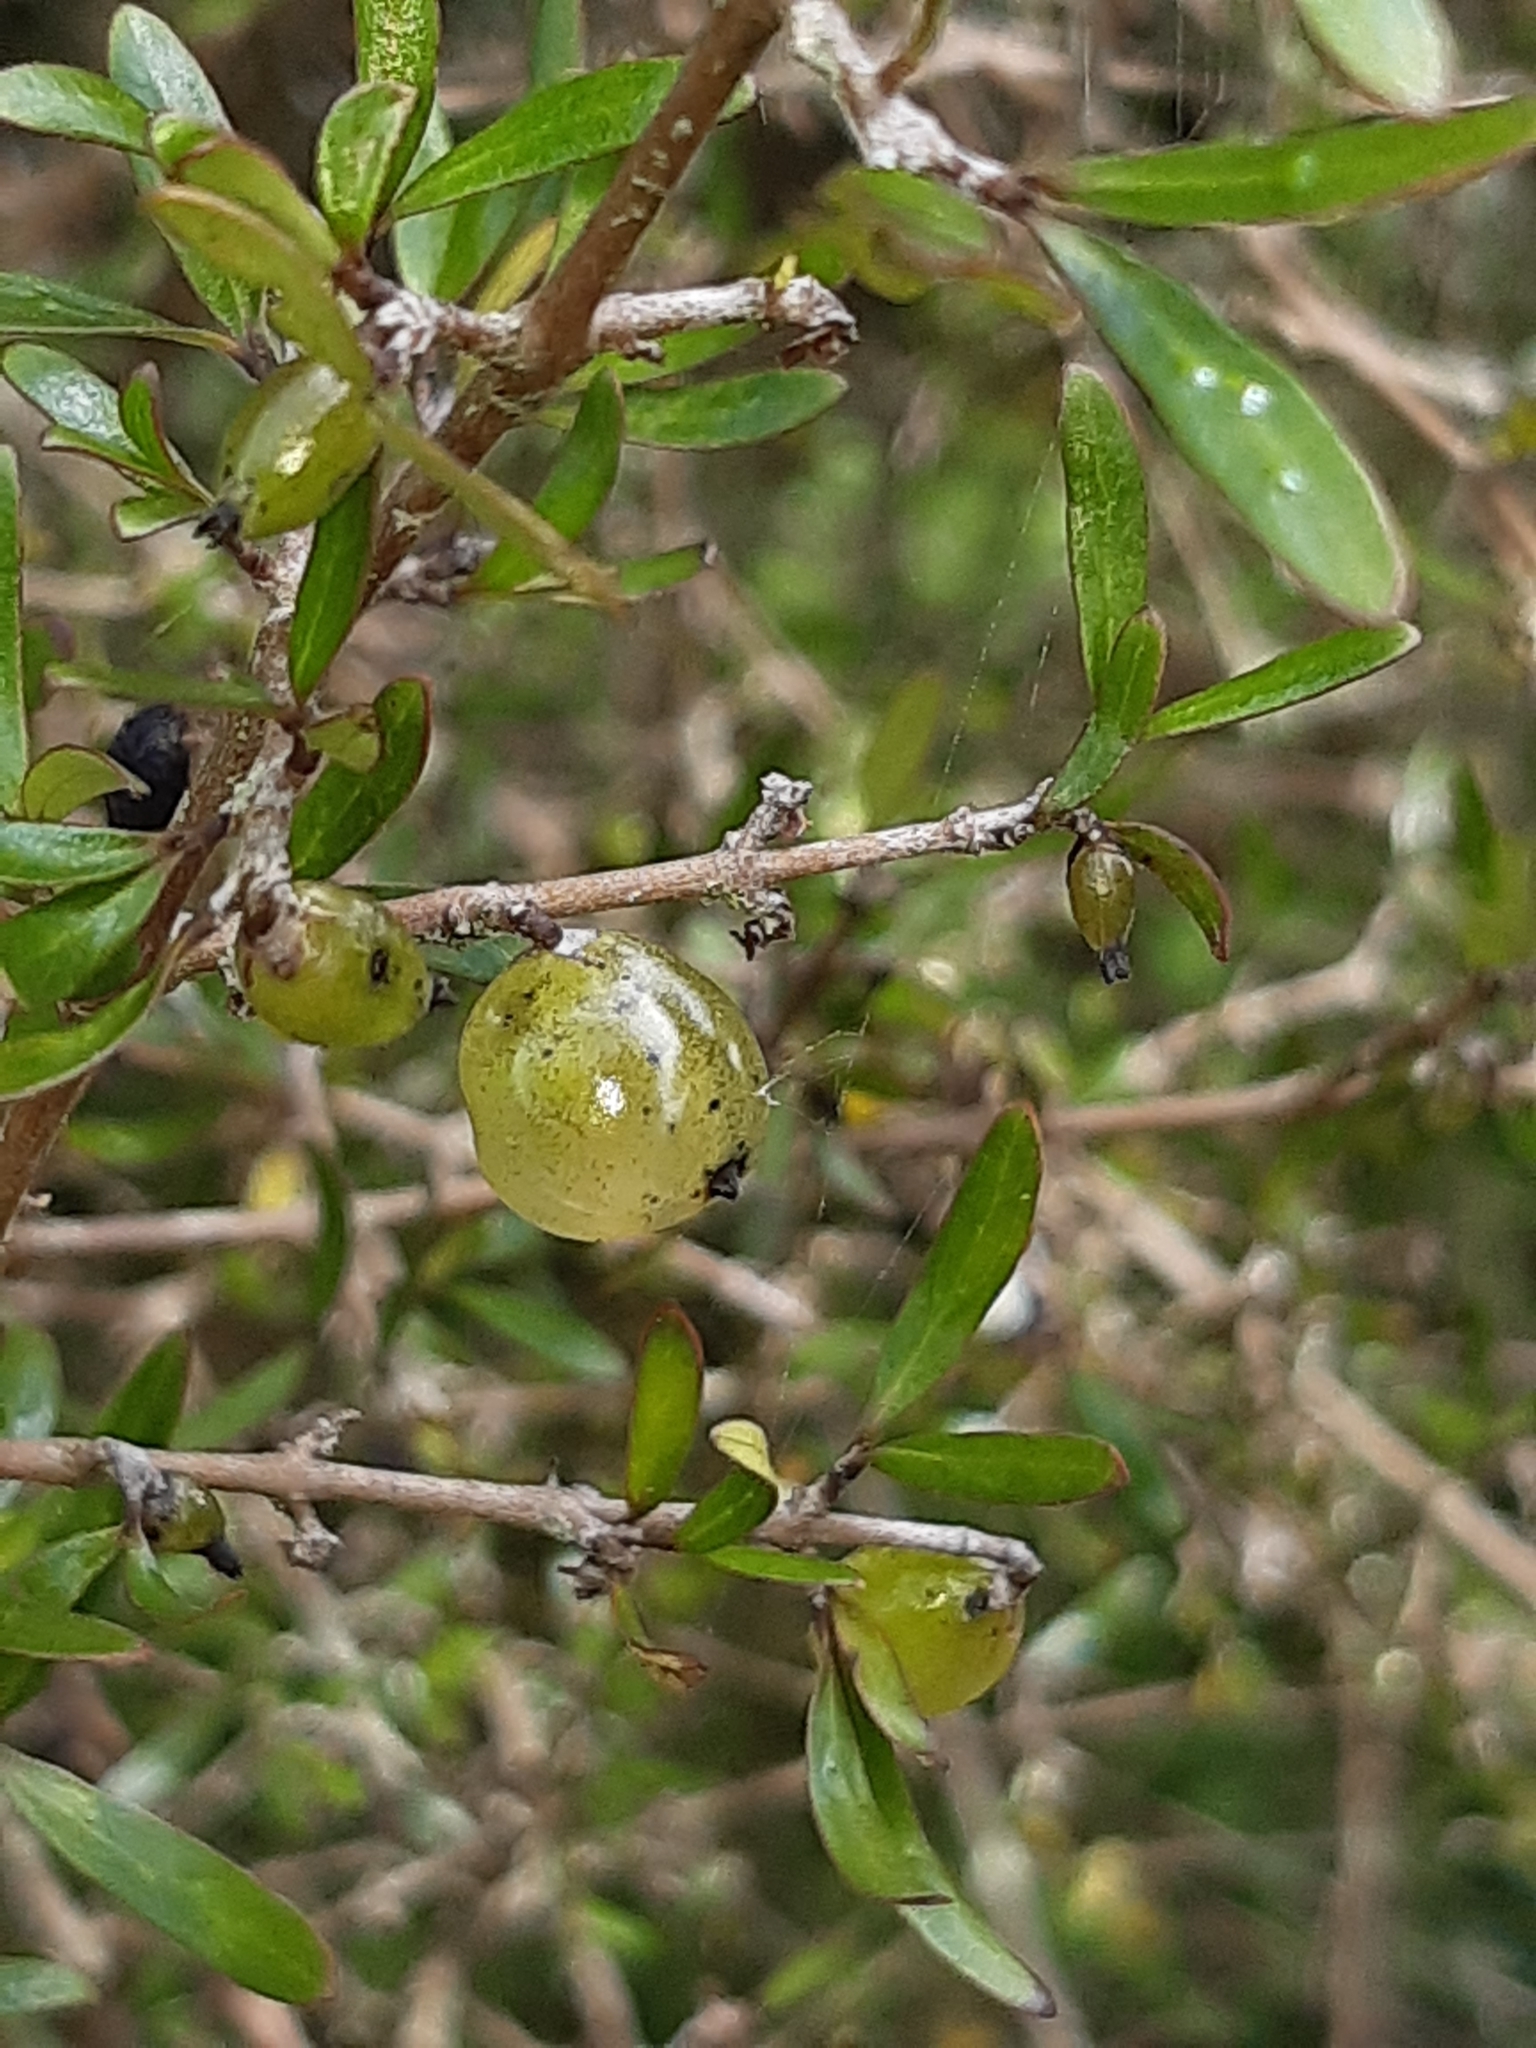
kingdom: Plantae
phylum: Tracheophyta
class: Magnoliopsida
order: Gentianales
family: Rubiaceae
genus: Coprosma
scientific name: Coprosma propinqua
